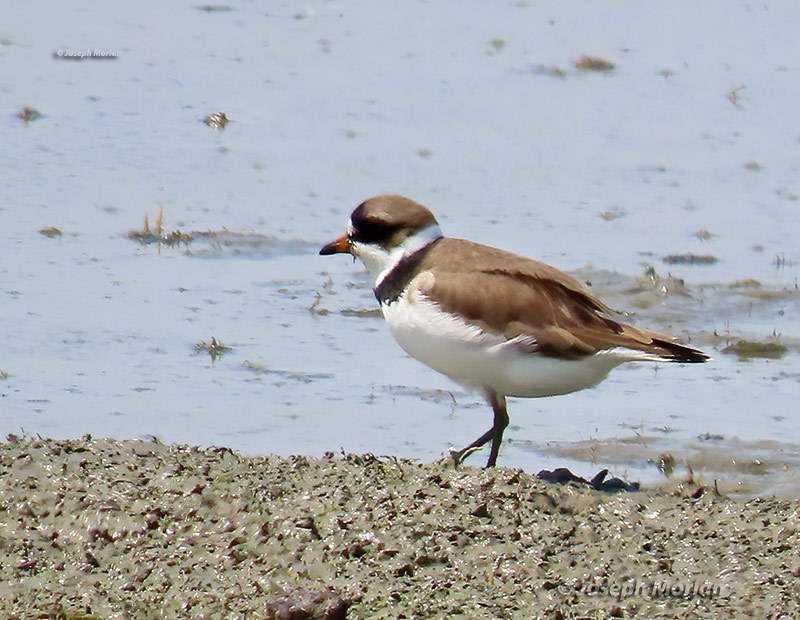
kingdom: Animalia
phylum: Chordata
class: Aves
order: Charadriiformes
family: Charadriidae
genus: Charadrius
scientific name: Charadrius semipalmatus
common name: Semipalmated plover
